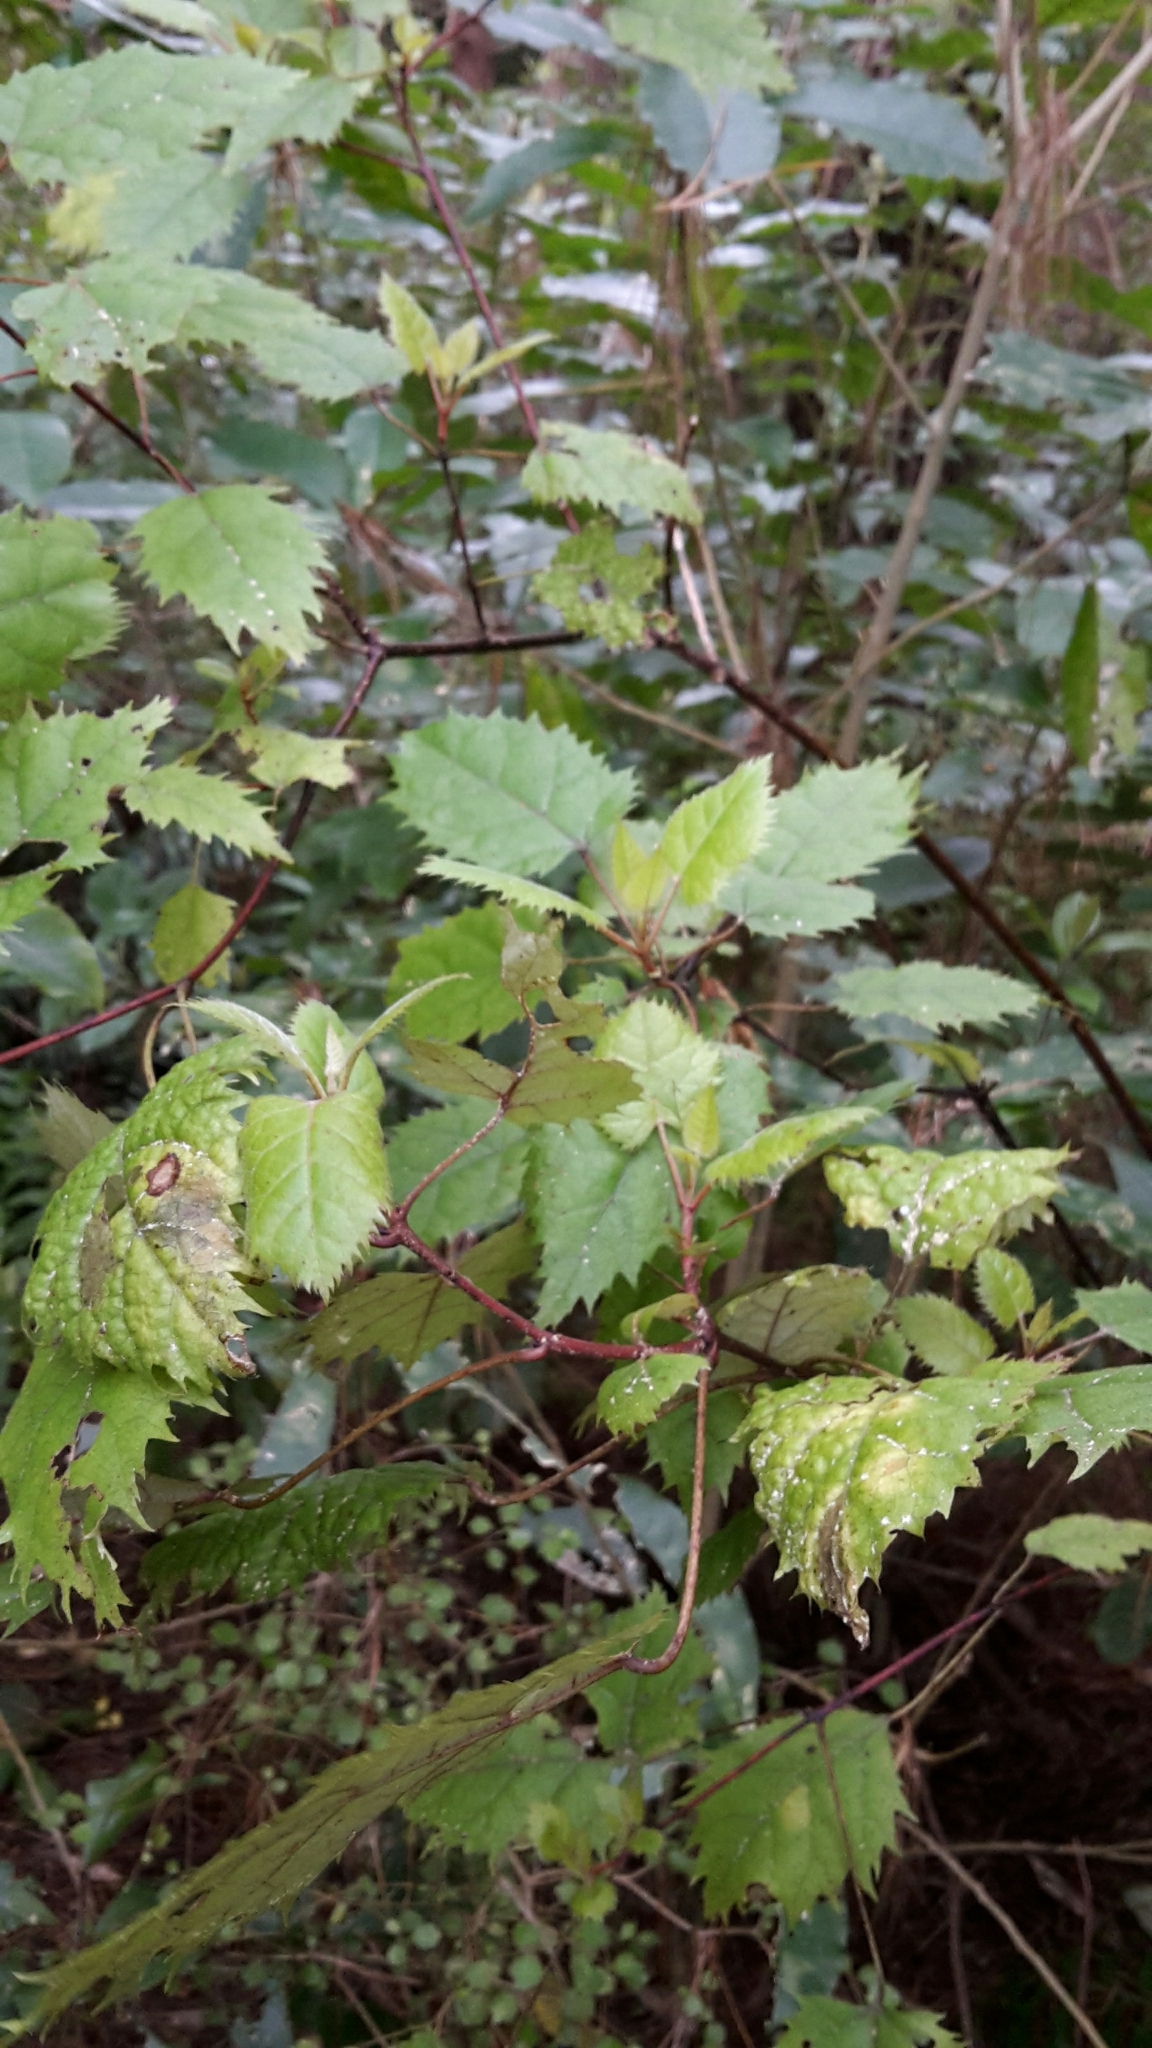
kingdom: Plantae
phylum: Tracheophyta
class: Magnoliopsida
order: Oxalidales
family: Elaeocarpaceae
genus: Aristotelia
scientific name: Aristotelia serrata
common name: New zealand wineberry
